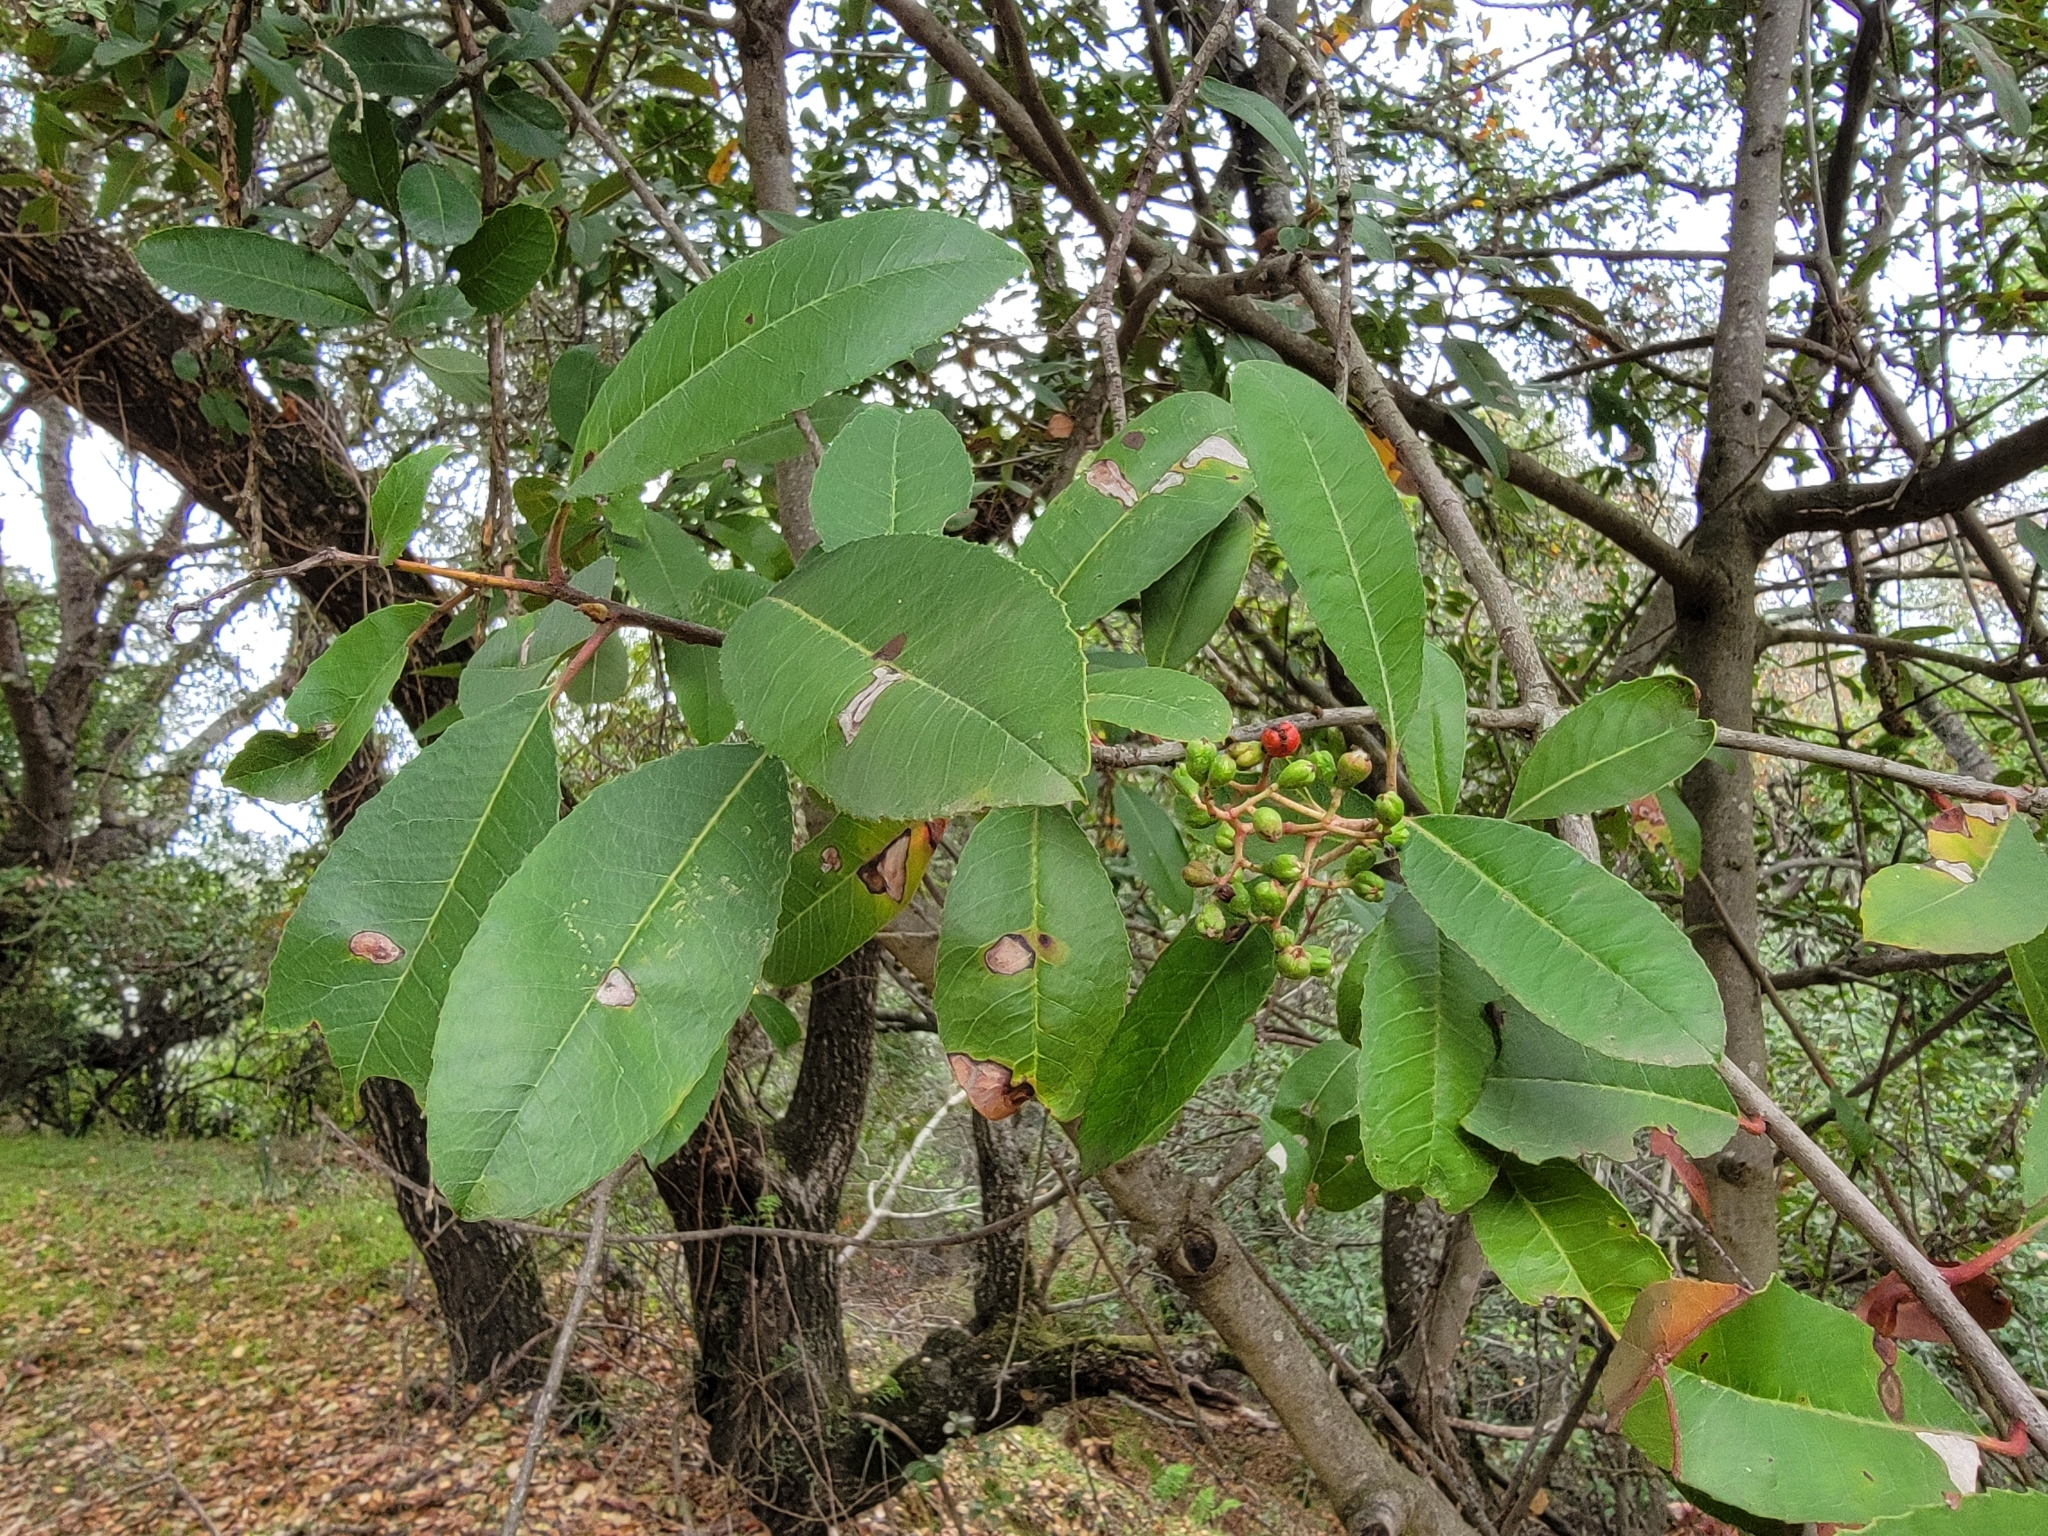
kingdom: Plantae
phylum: Tracheophyta
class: Magnoliopsida
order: Rosales
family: Rosaceae
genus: Heteromeles
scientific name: Heteromeles arbutifolia
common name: California-holly
